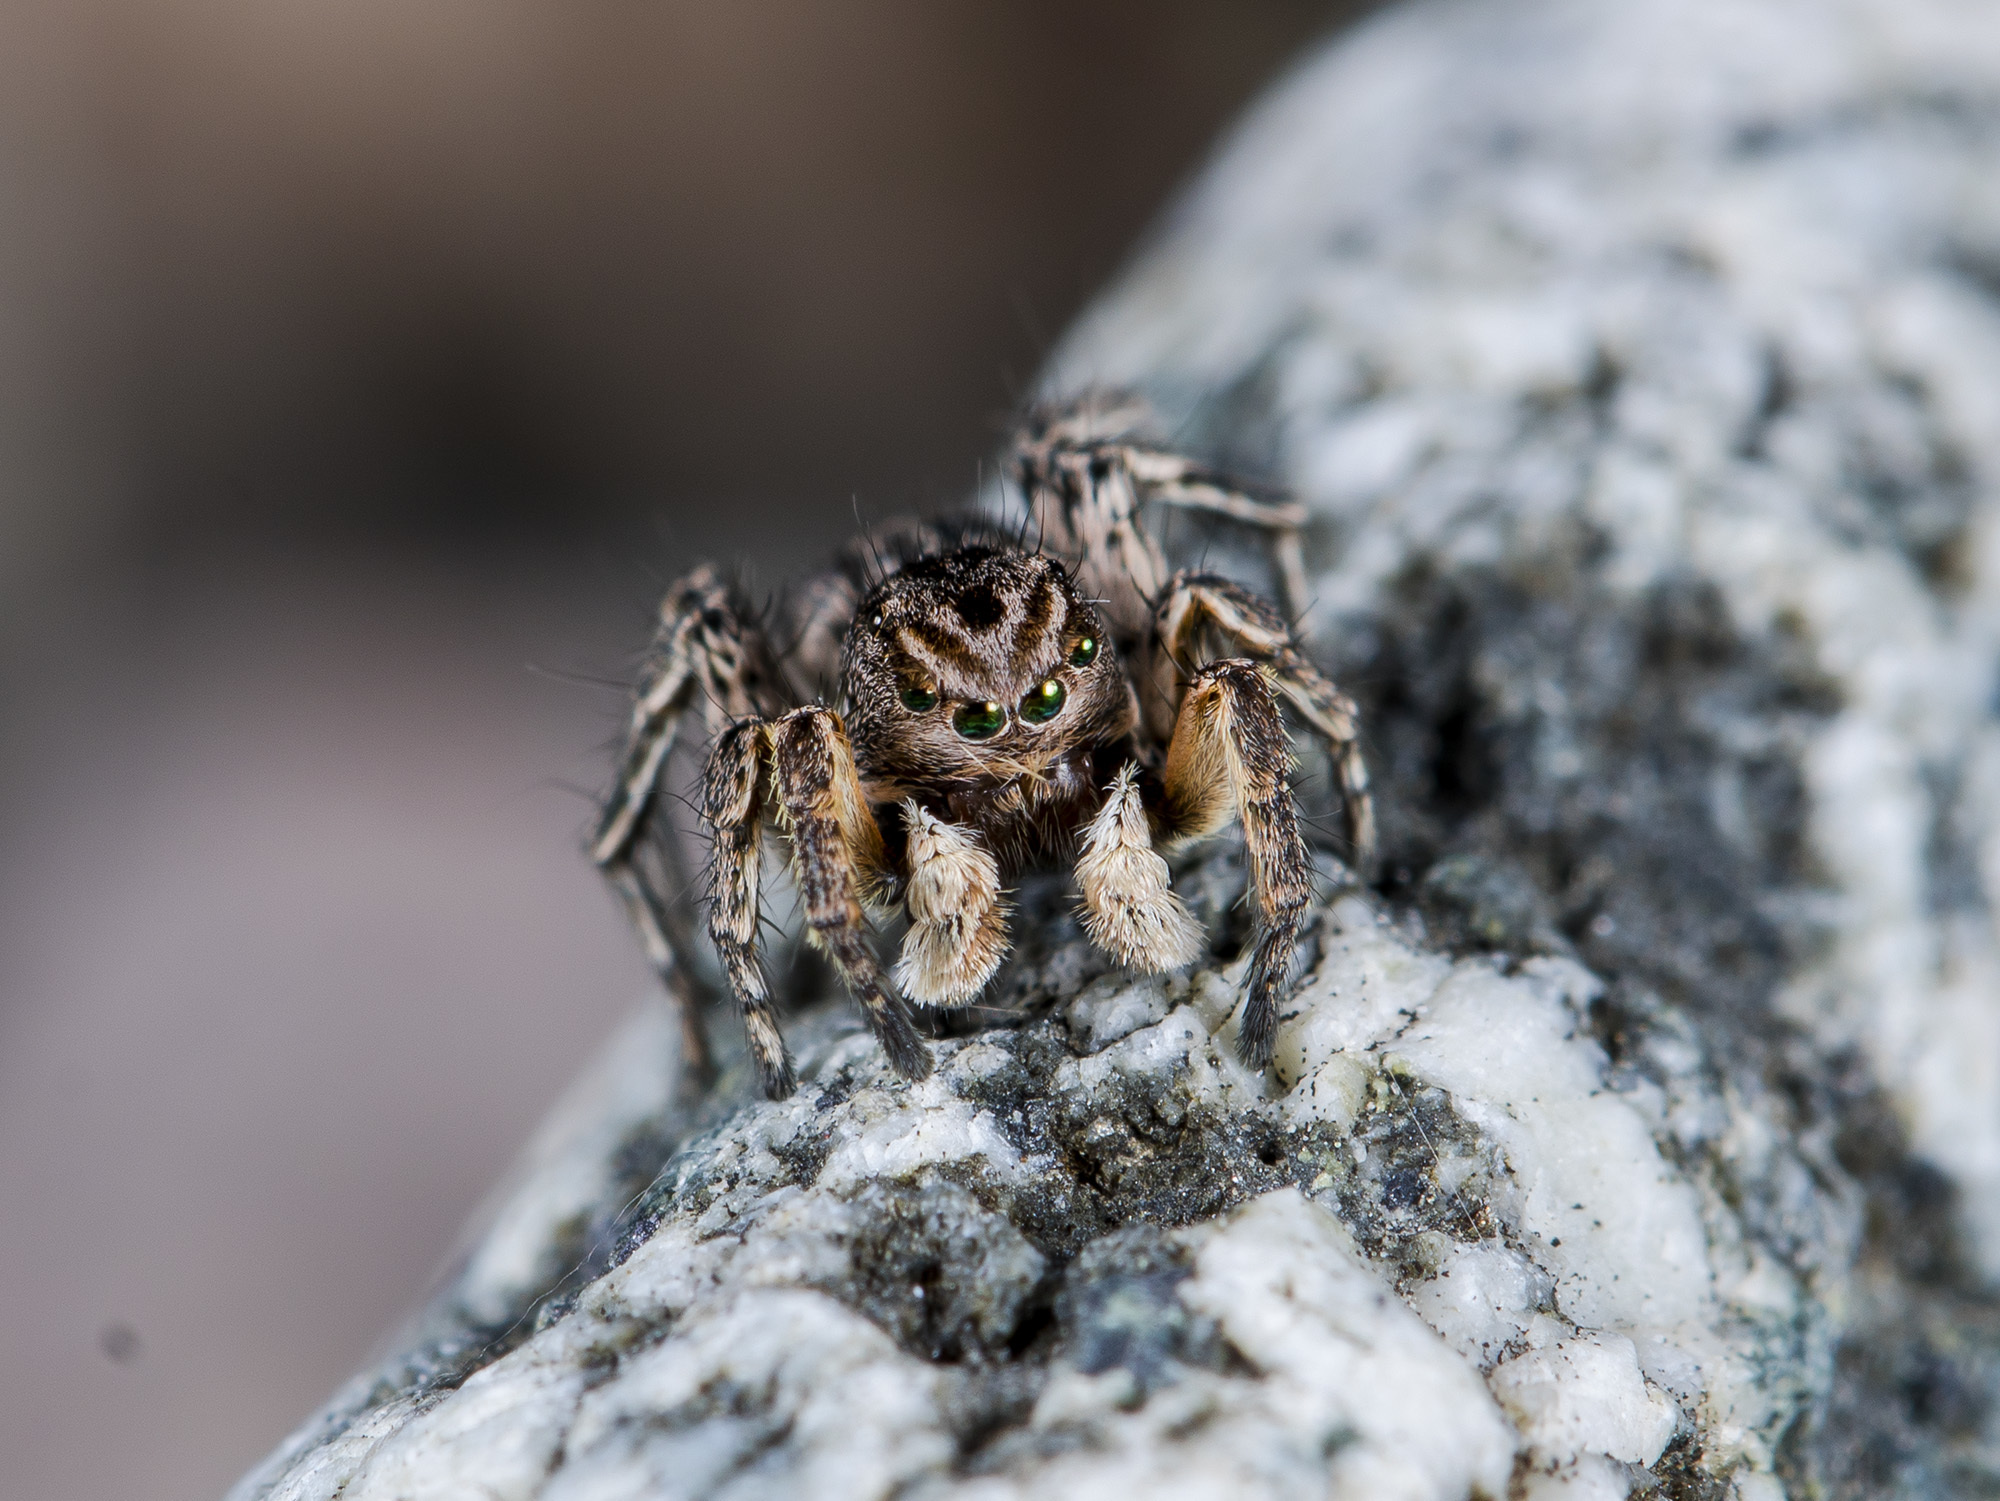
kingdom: Animalia
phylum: Arthropoda
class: Arachnida
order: Araneae
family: Salticidae
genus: Aelurillus
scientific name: Aelurillus v-insignitus
